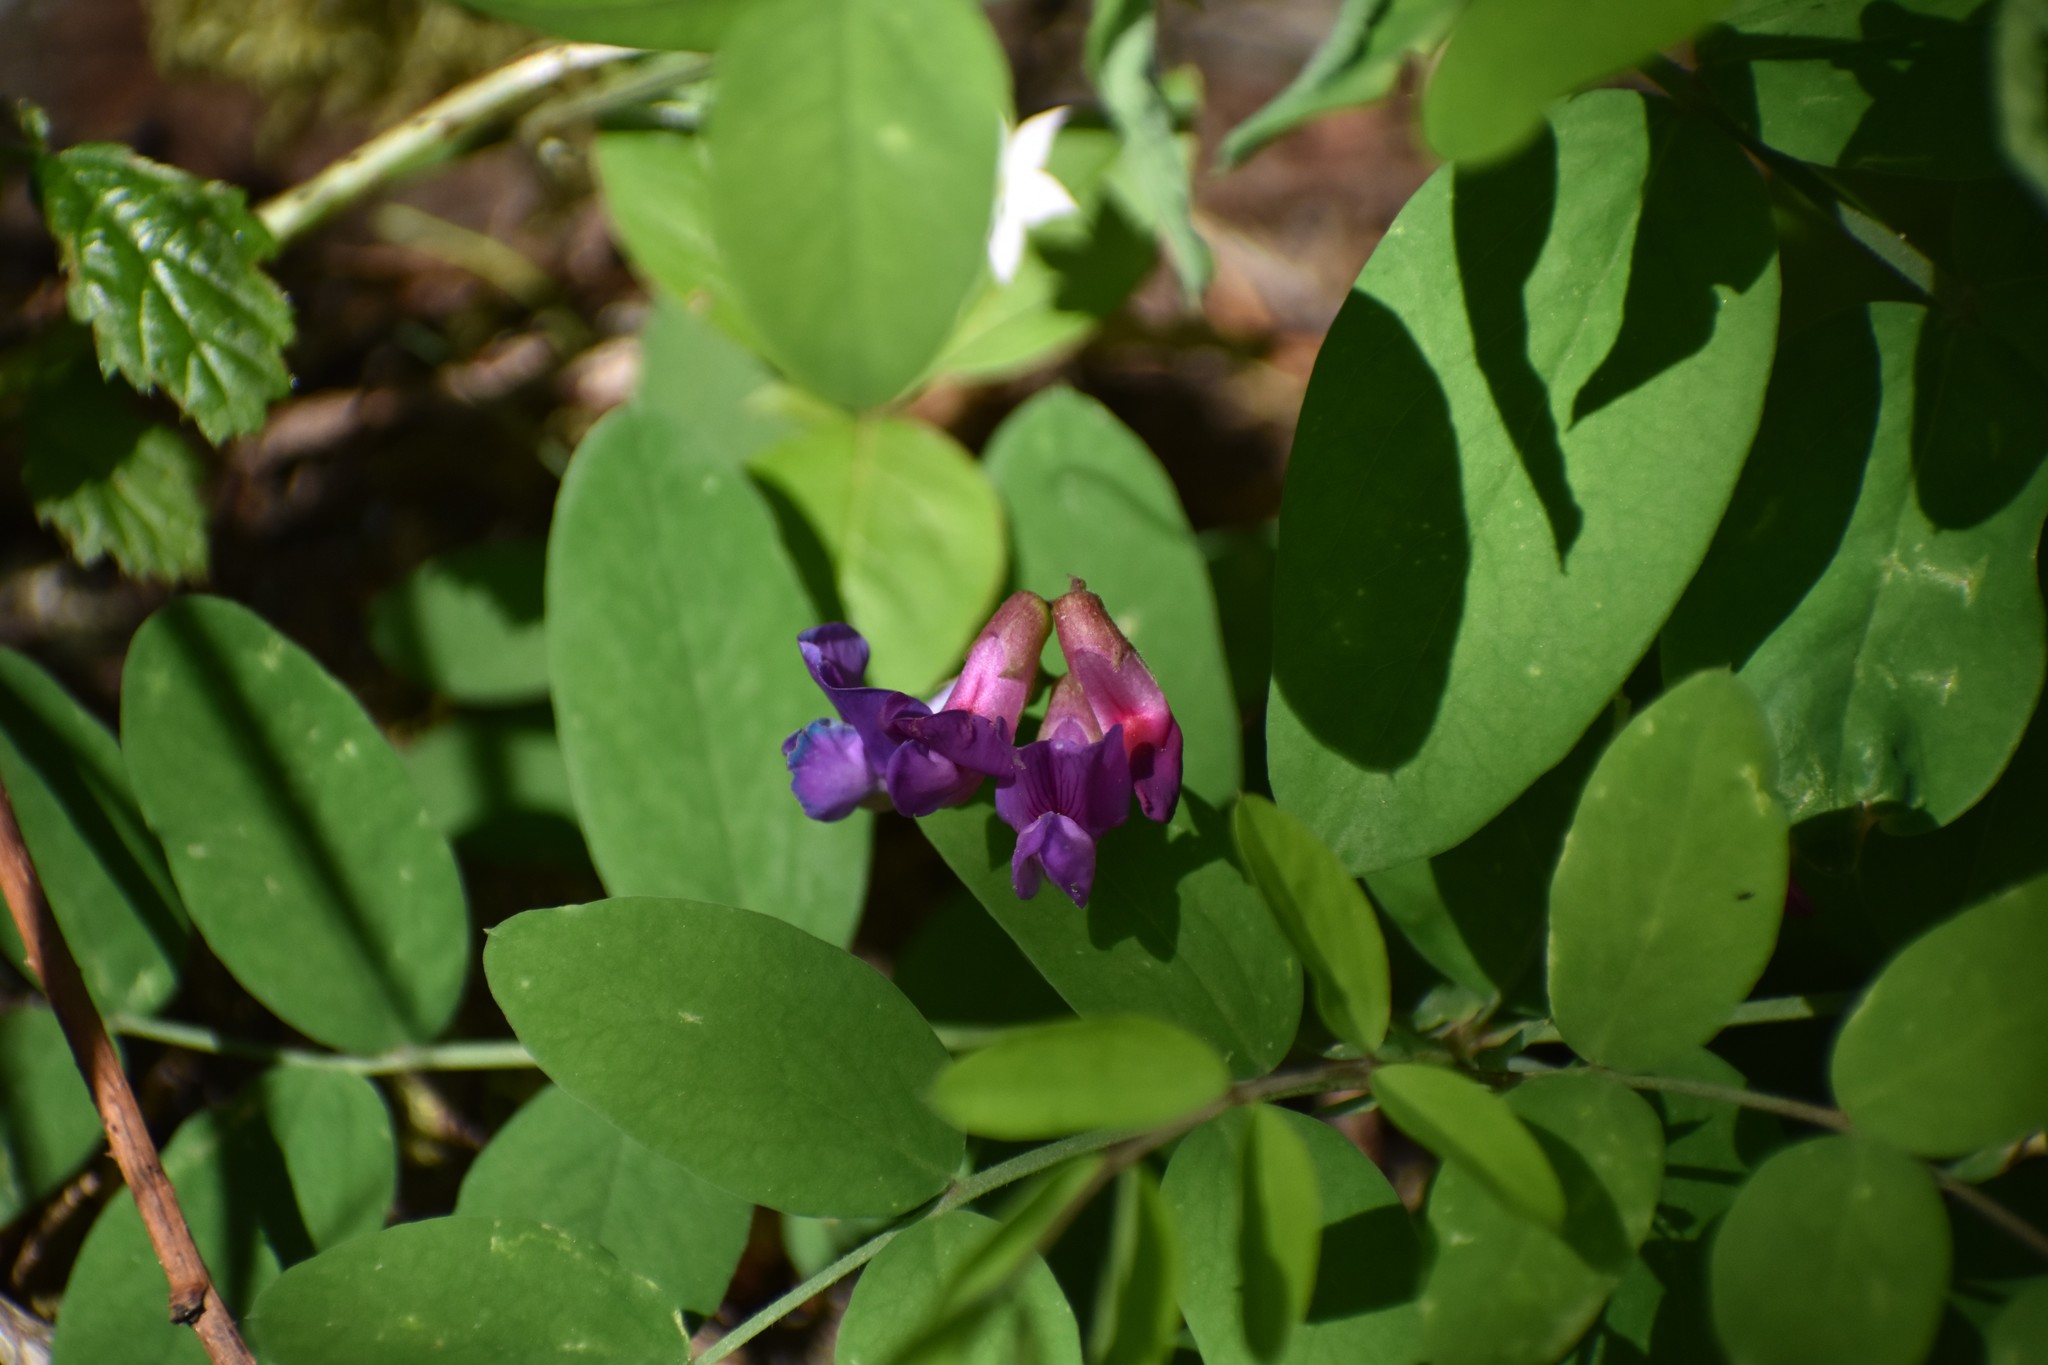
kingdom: Plantae
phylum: Tracheophyta
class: Magnoliopsida
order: Fabales
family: Fabaceae
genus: Lathyrus
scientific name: Lathyrus nevadensis
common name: Sierra nevada peavine
